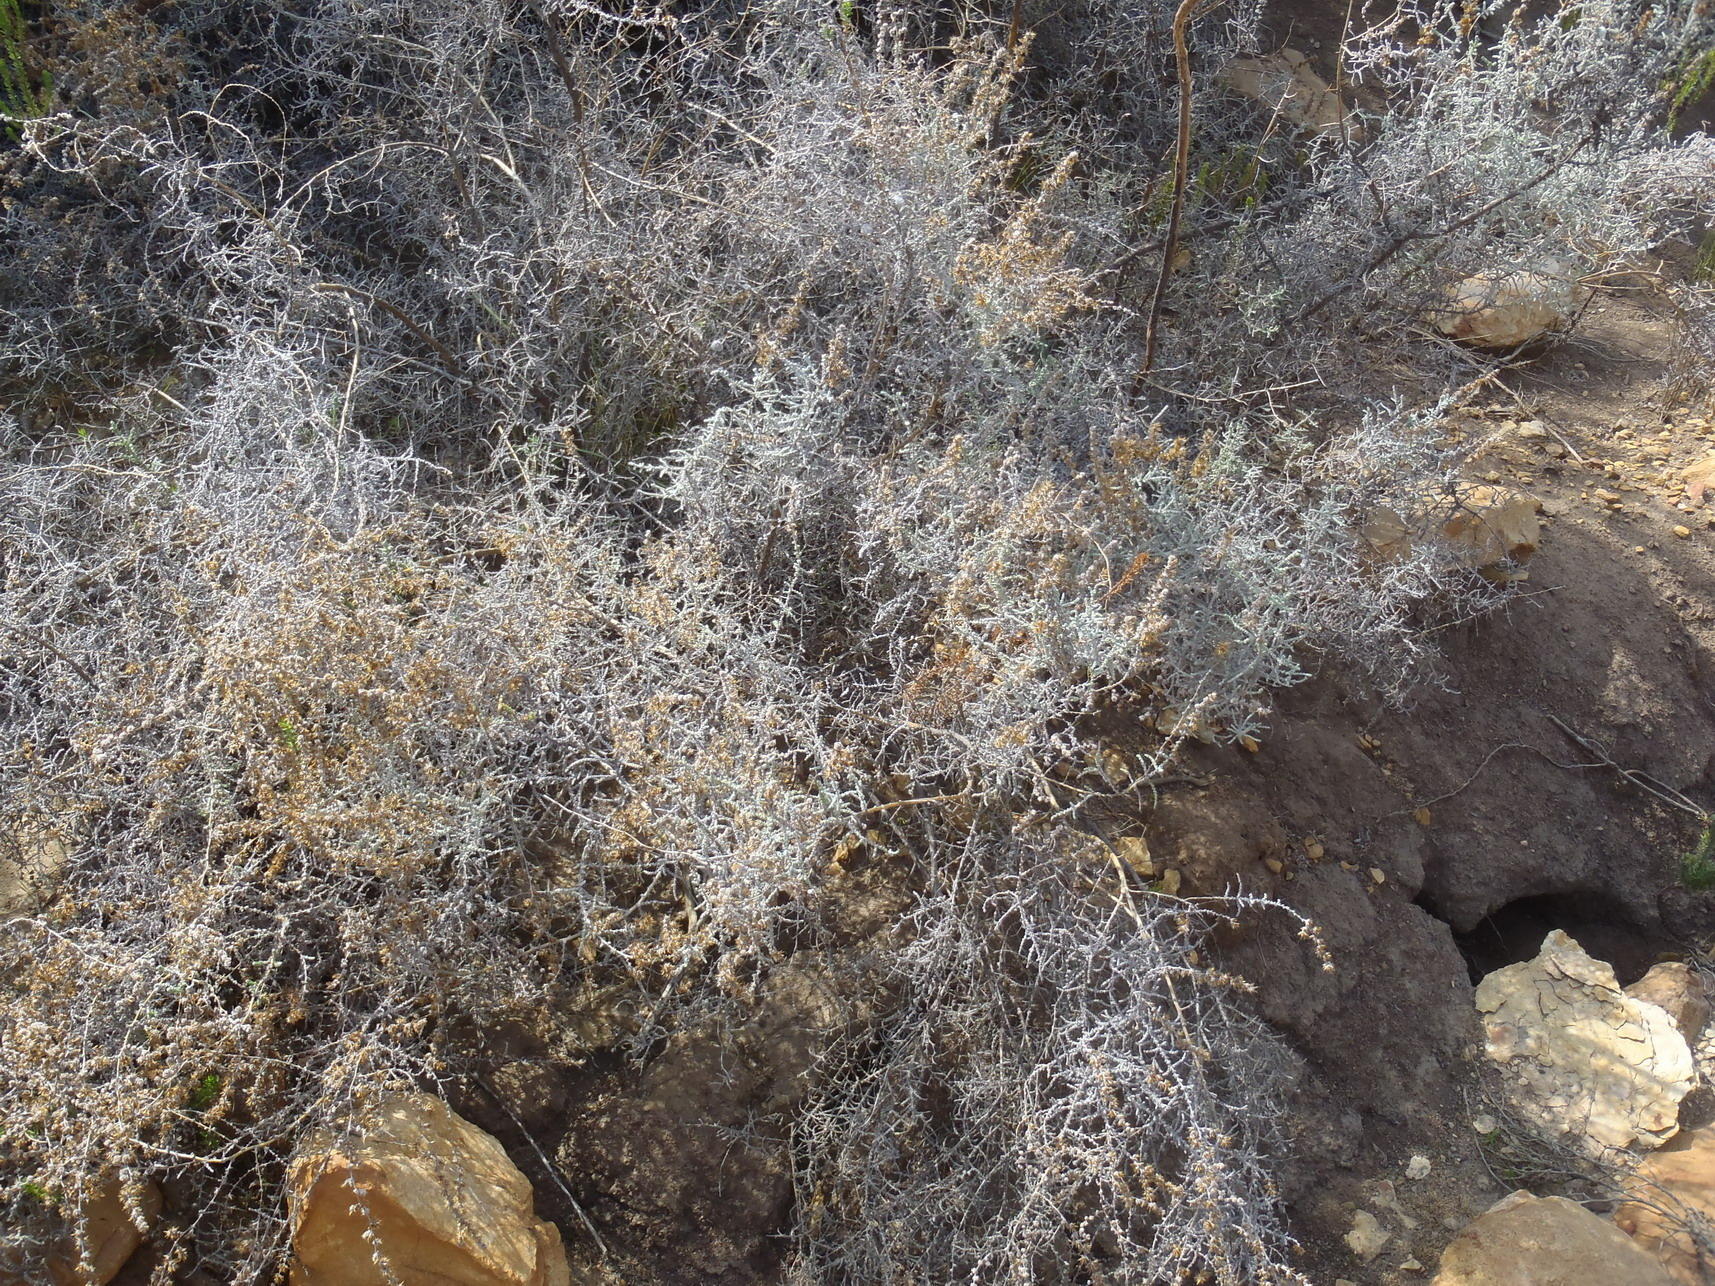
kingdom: Plantae
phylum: Tracheophyta
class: Magnoliopsida
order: Asterales
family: Asteraceae
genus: Seriphium
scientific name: Seriphium plumosum
